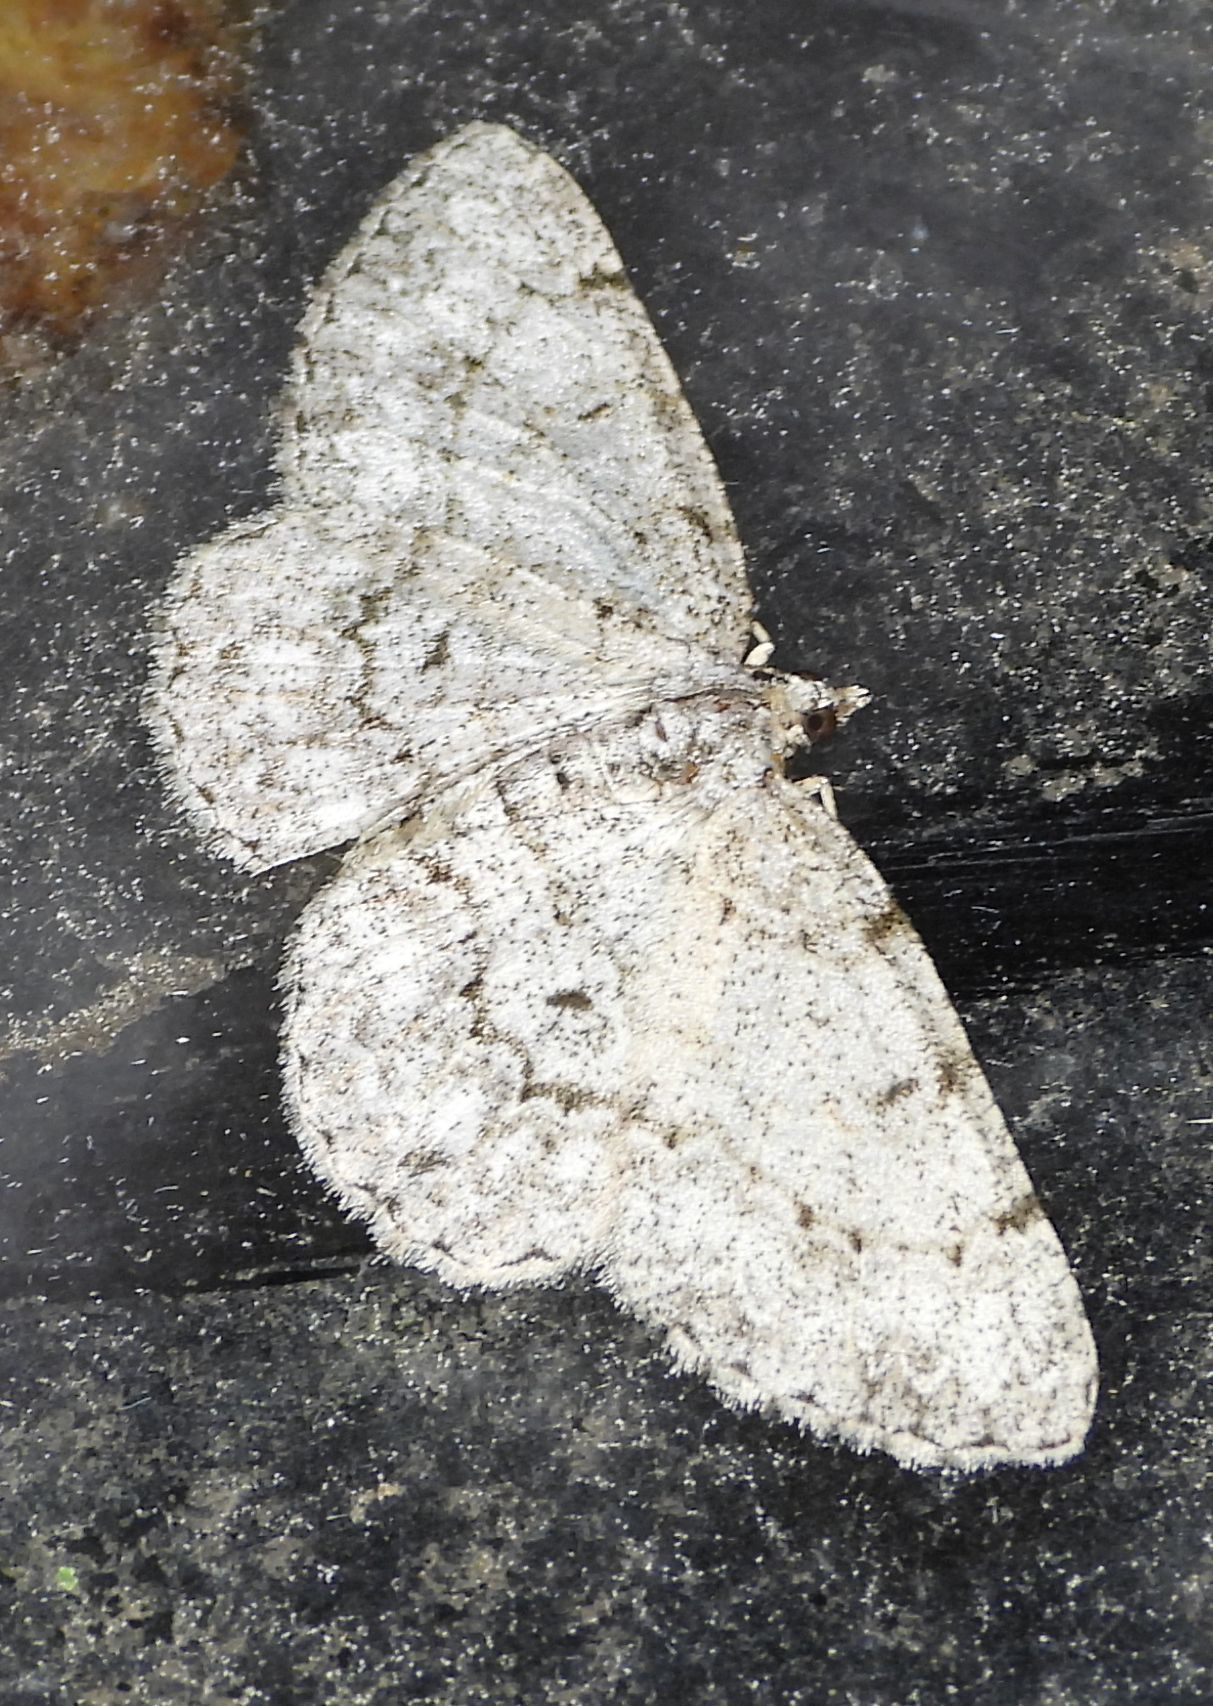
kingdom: Animalia
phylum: Arthropoda
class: Insecta
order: Lepidoptera
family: Geometridae
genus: Protoboarmia
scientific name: Protoboarmia porcelaria
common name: Porcelain gray
